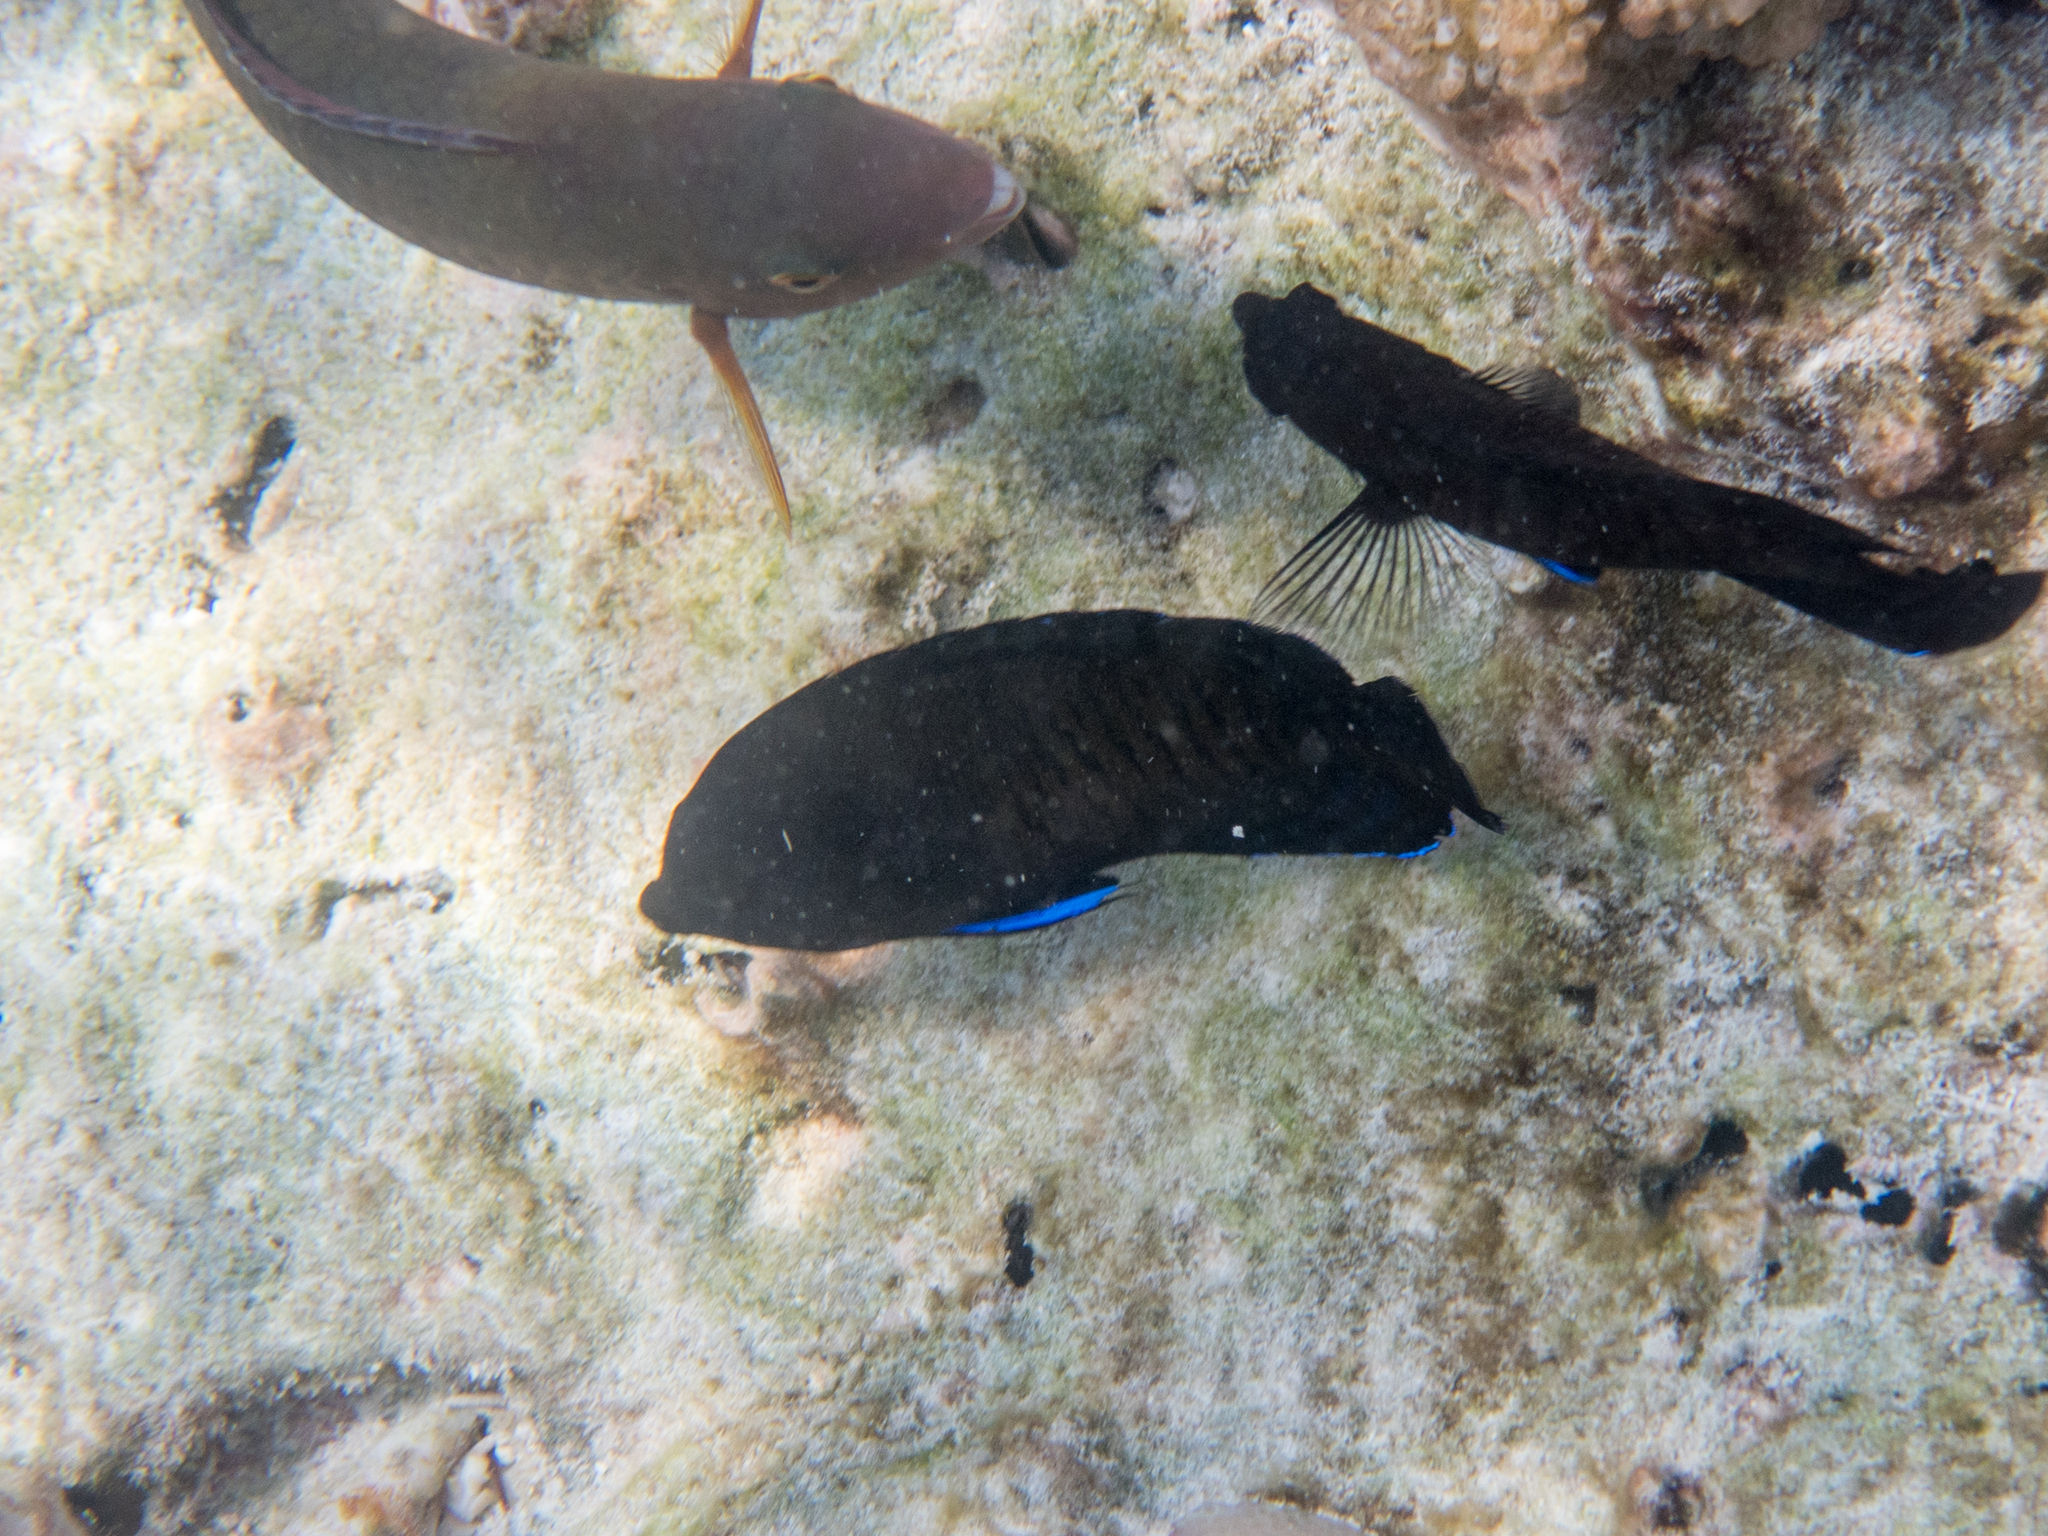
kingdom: Animalia
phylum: Chordata
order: Perciformes
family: Pomacanthidae
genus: Centropyge
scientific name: Centropyge multispinis
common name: Many-spined angelfish
